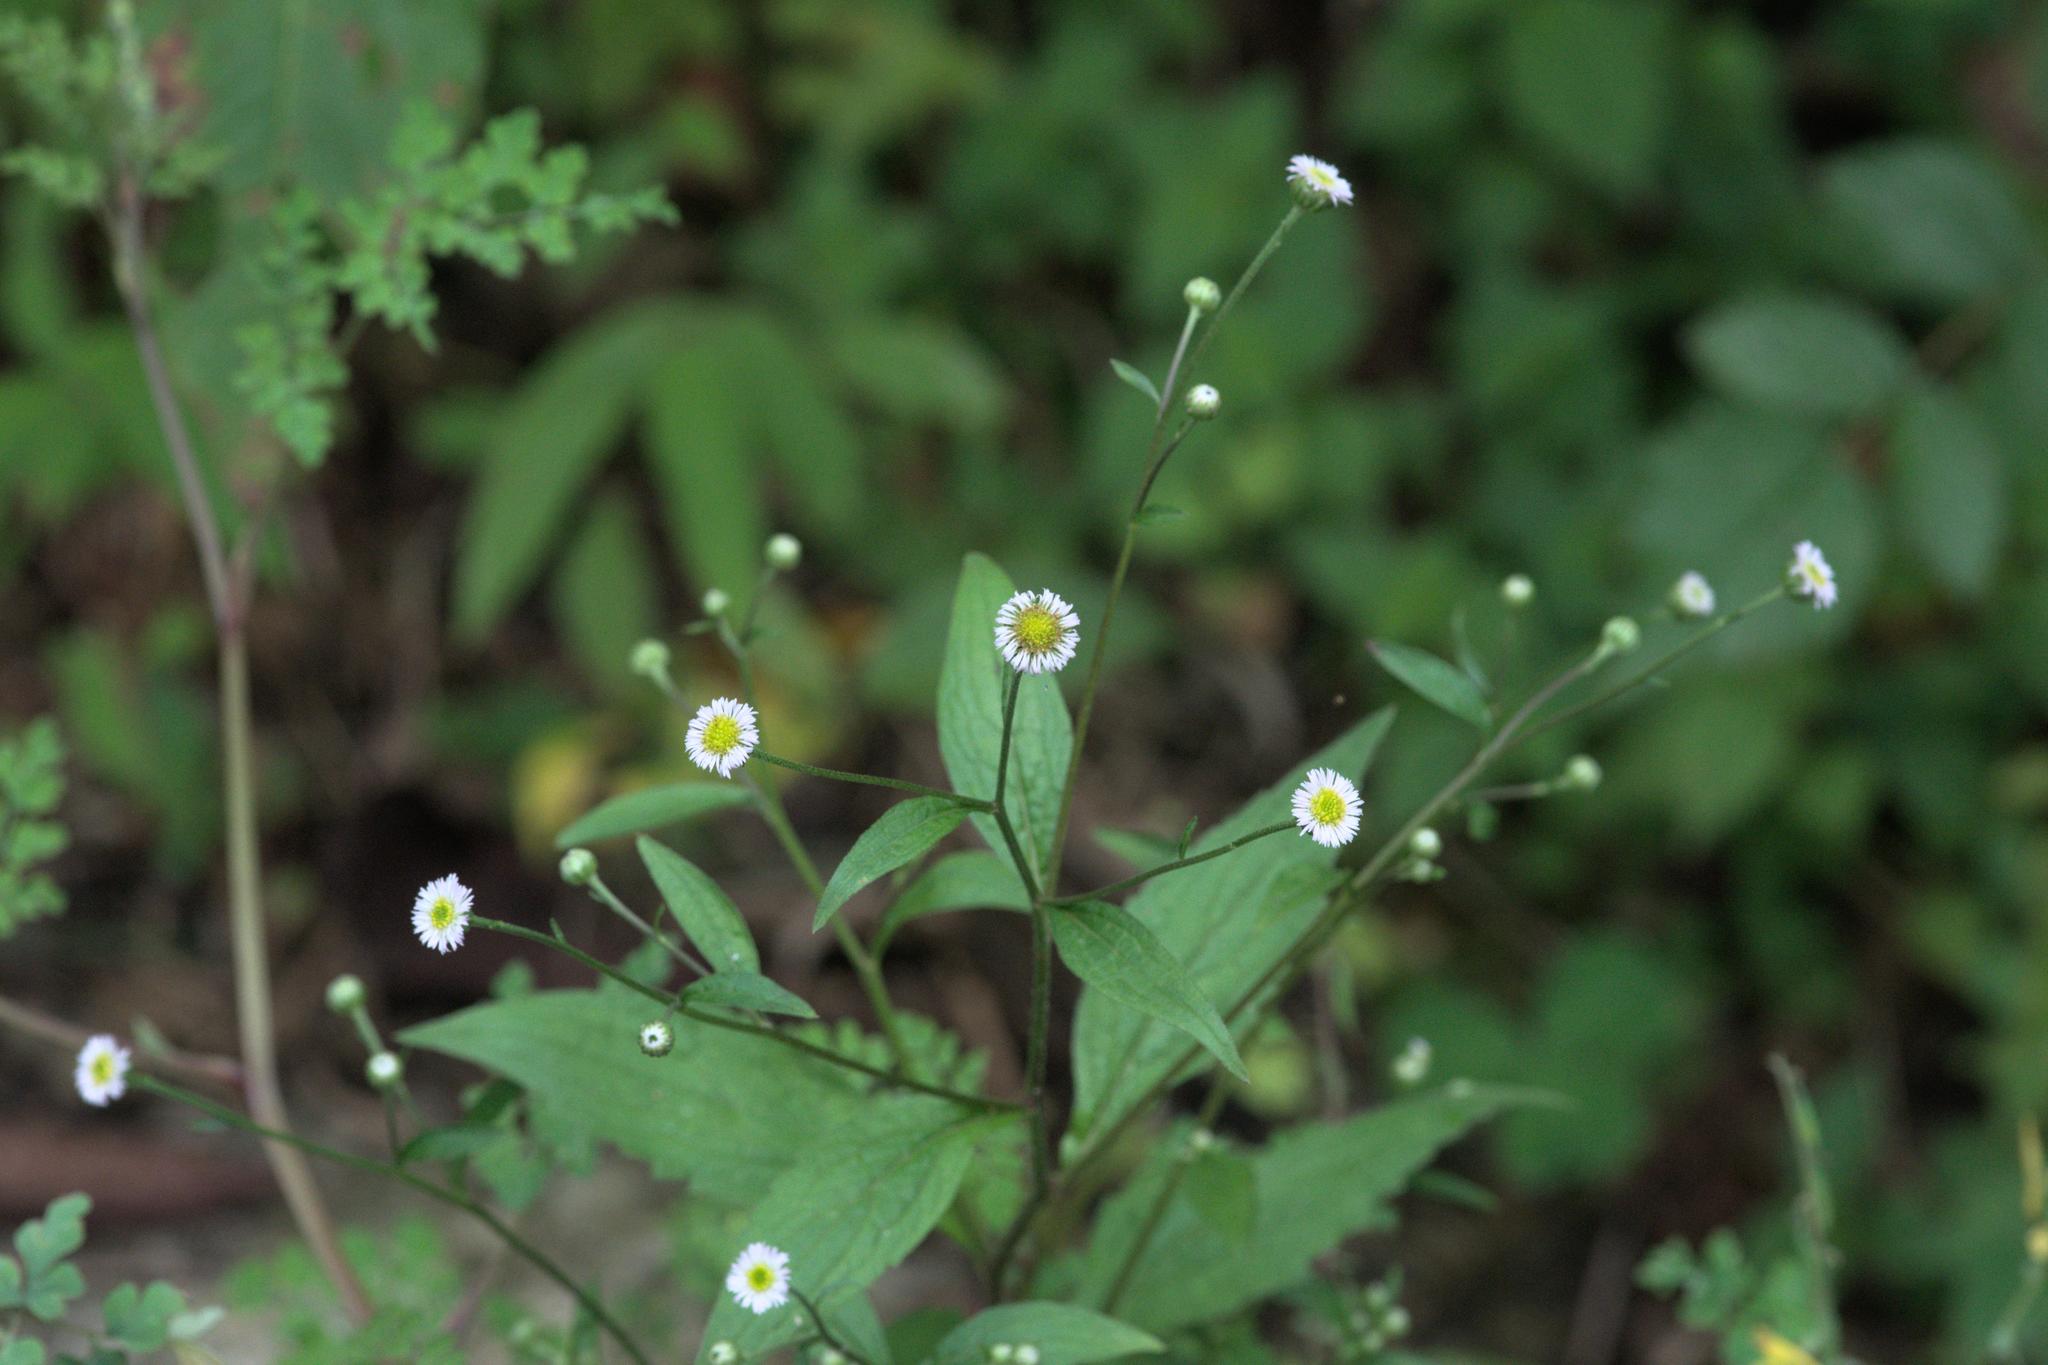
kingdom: Plantae
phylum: Tracheophyta
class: Magnoliopsida
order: Asterales
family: Asteraceae
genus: Myriactis
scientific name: Myriactis wightii
